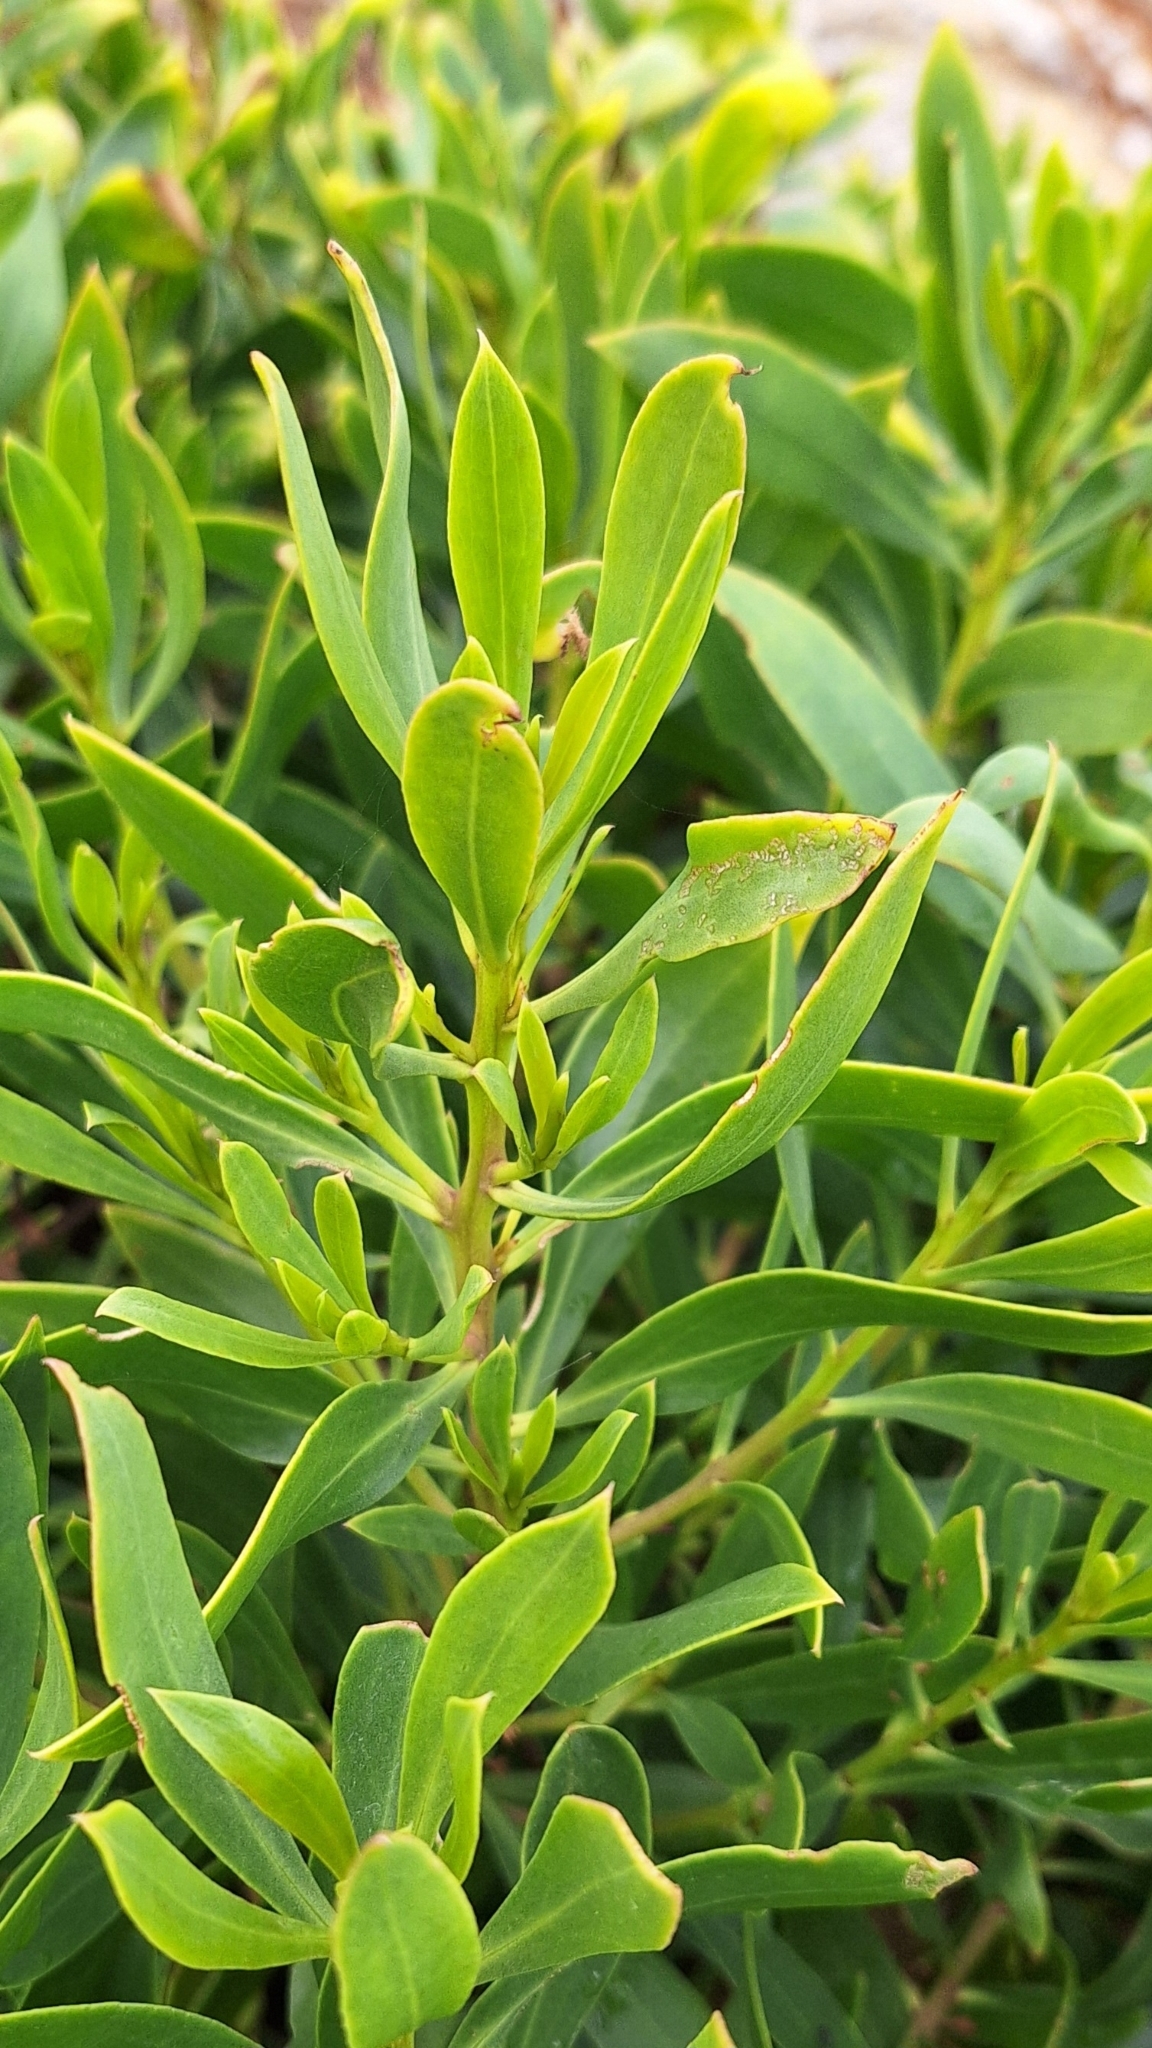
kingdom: Plantae
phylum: Tracheophyta
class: Magnoliopsida
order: Lamiales
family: Scrophulariaceae
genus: Myoporum
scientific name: Myoporum insulare
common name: Common boobialla
